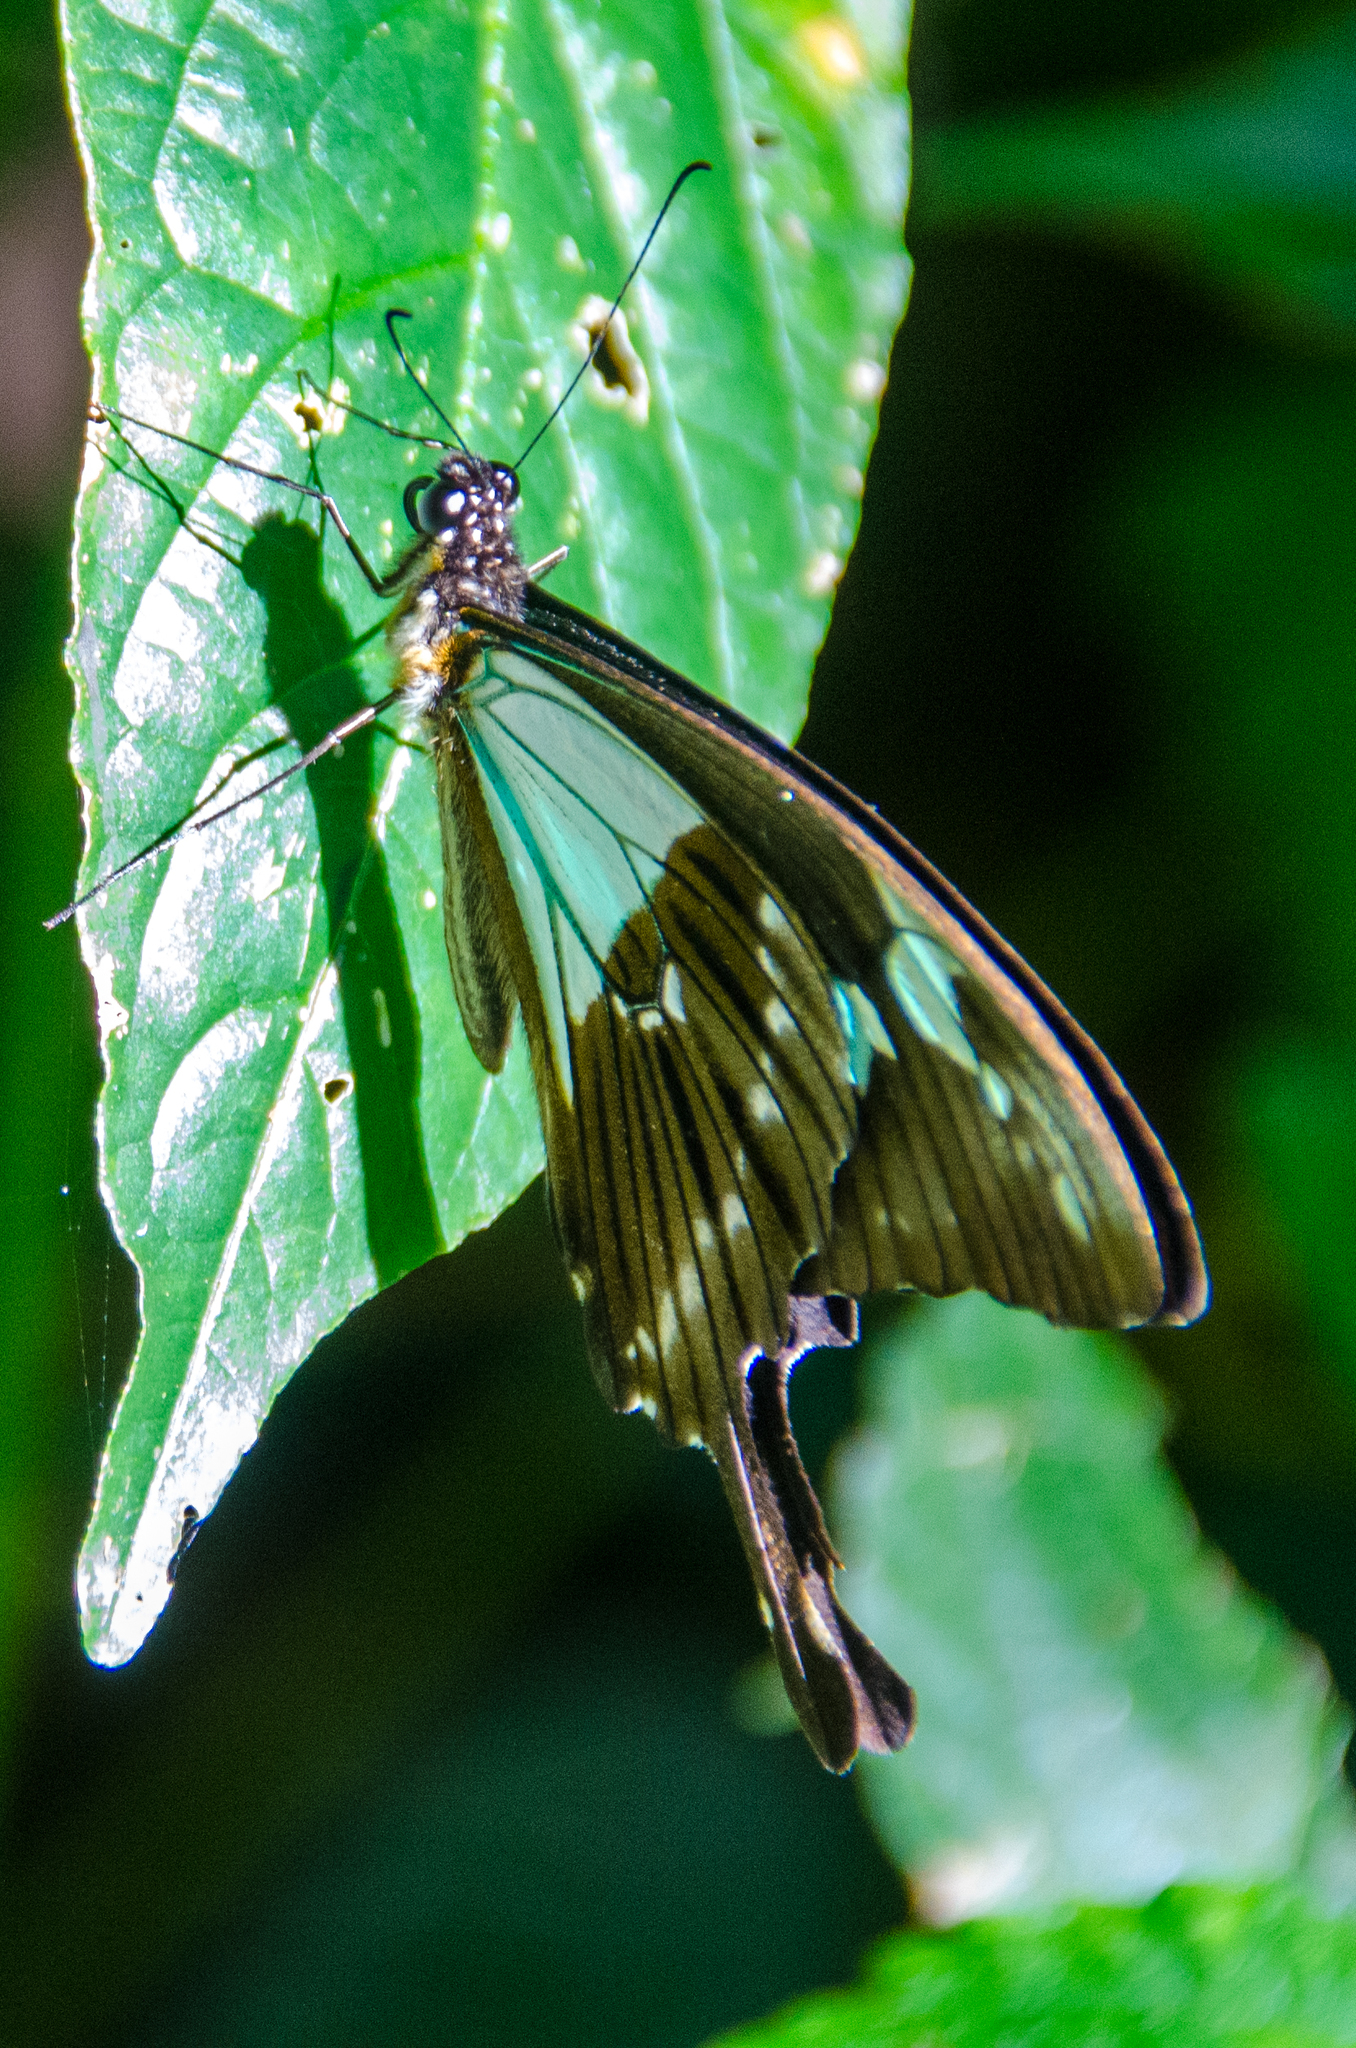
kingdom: Animalia
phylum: Arthropoda
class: Insecta
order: Lepidoptera
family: Papilionidae
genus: Papilio
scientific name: Papilio phorcas
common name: Apple-green swallowtail
